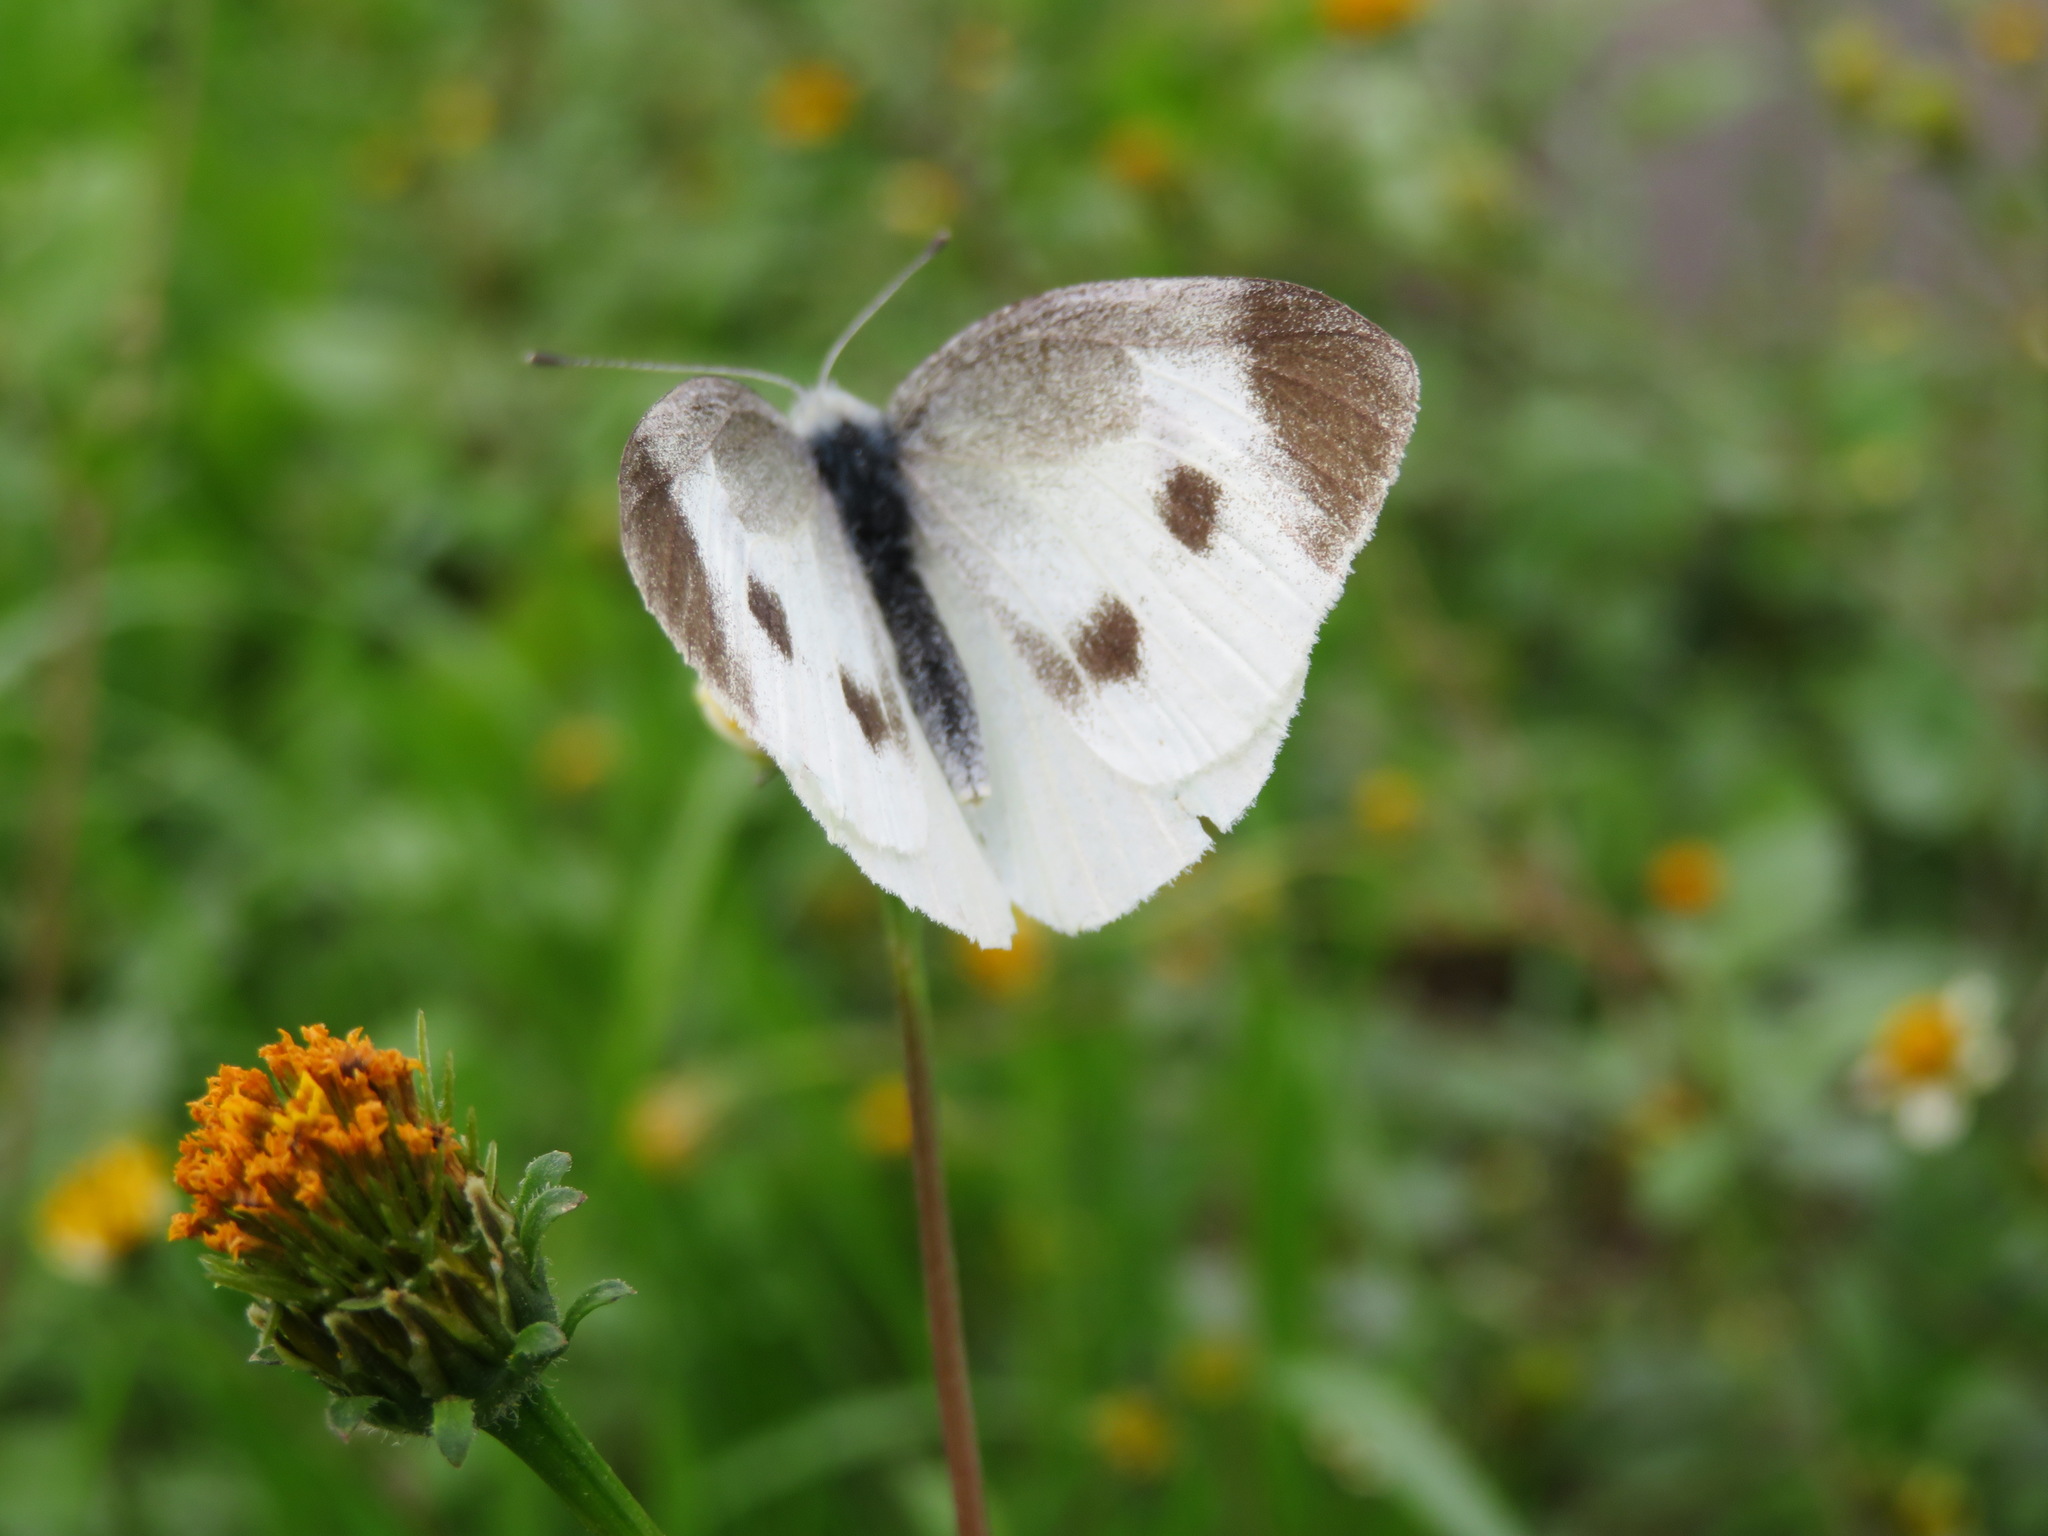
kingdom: Animalia
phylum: Arthropoda
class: Insecta
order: Lepidoptera
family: Pieridae
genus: Pieris
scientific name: Pieris rapae
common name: Small white
